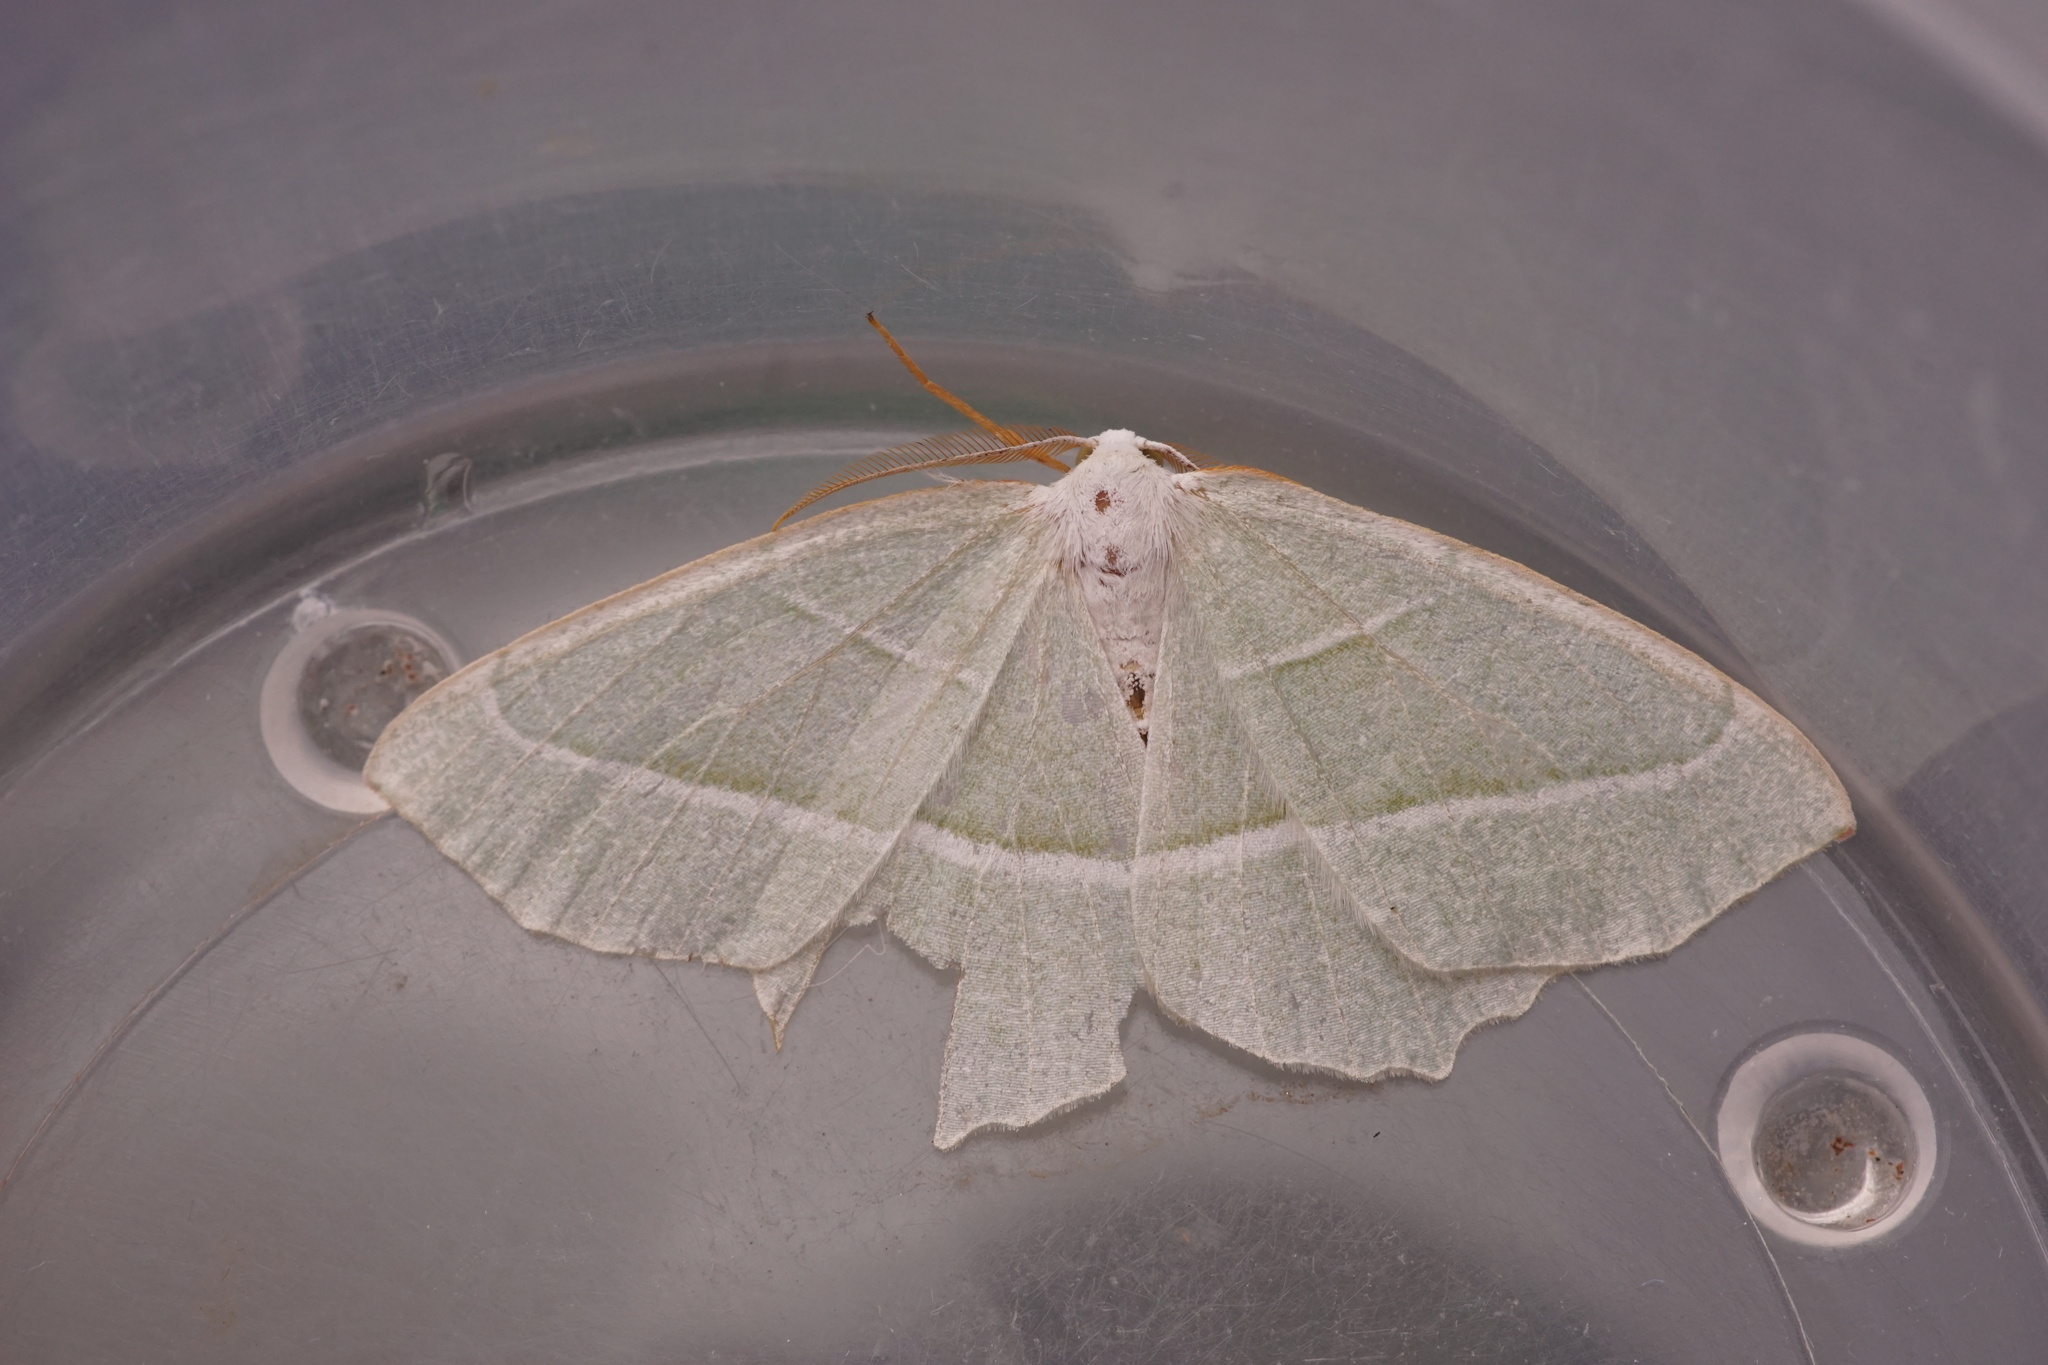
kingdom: Animalia
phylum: Arthropoda
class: Insecta
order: Lepidoptera
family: Geometridae
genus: Campaea
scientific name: Campaea margaritaria
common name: Light emerald
